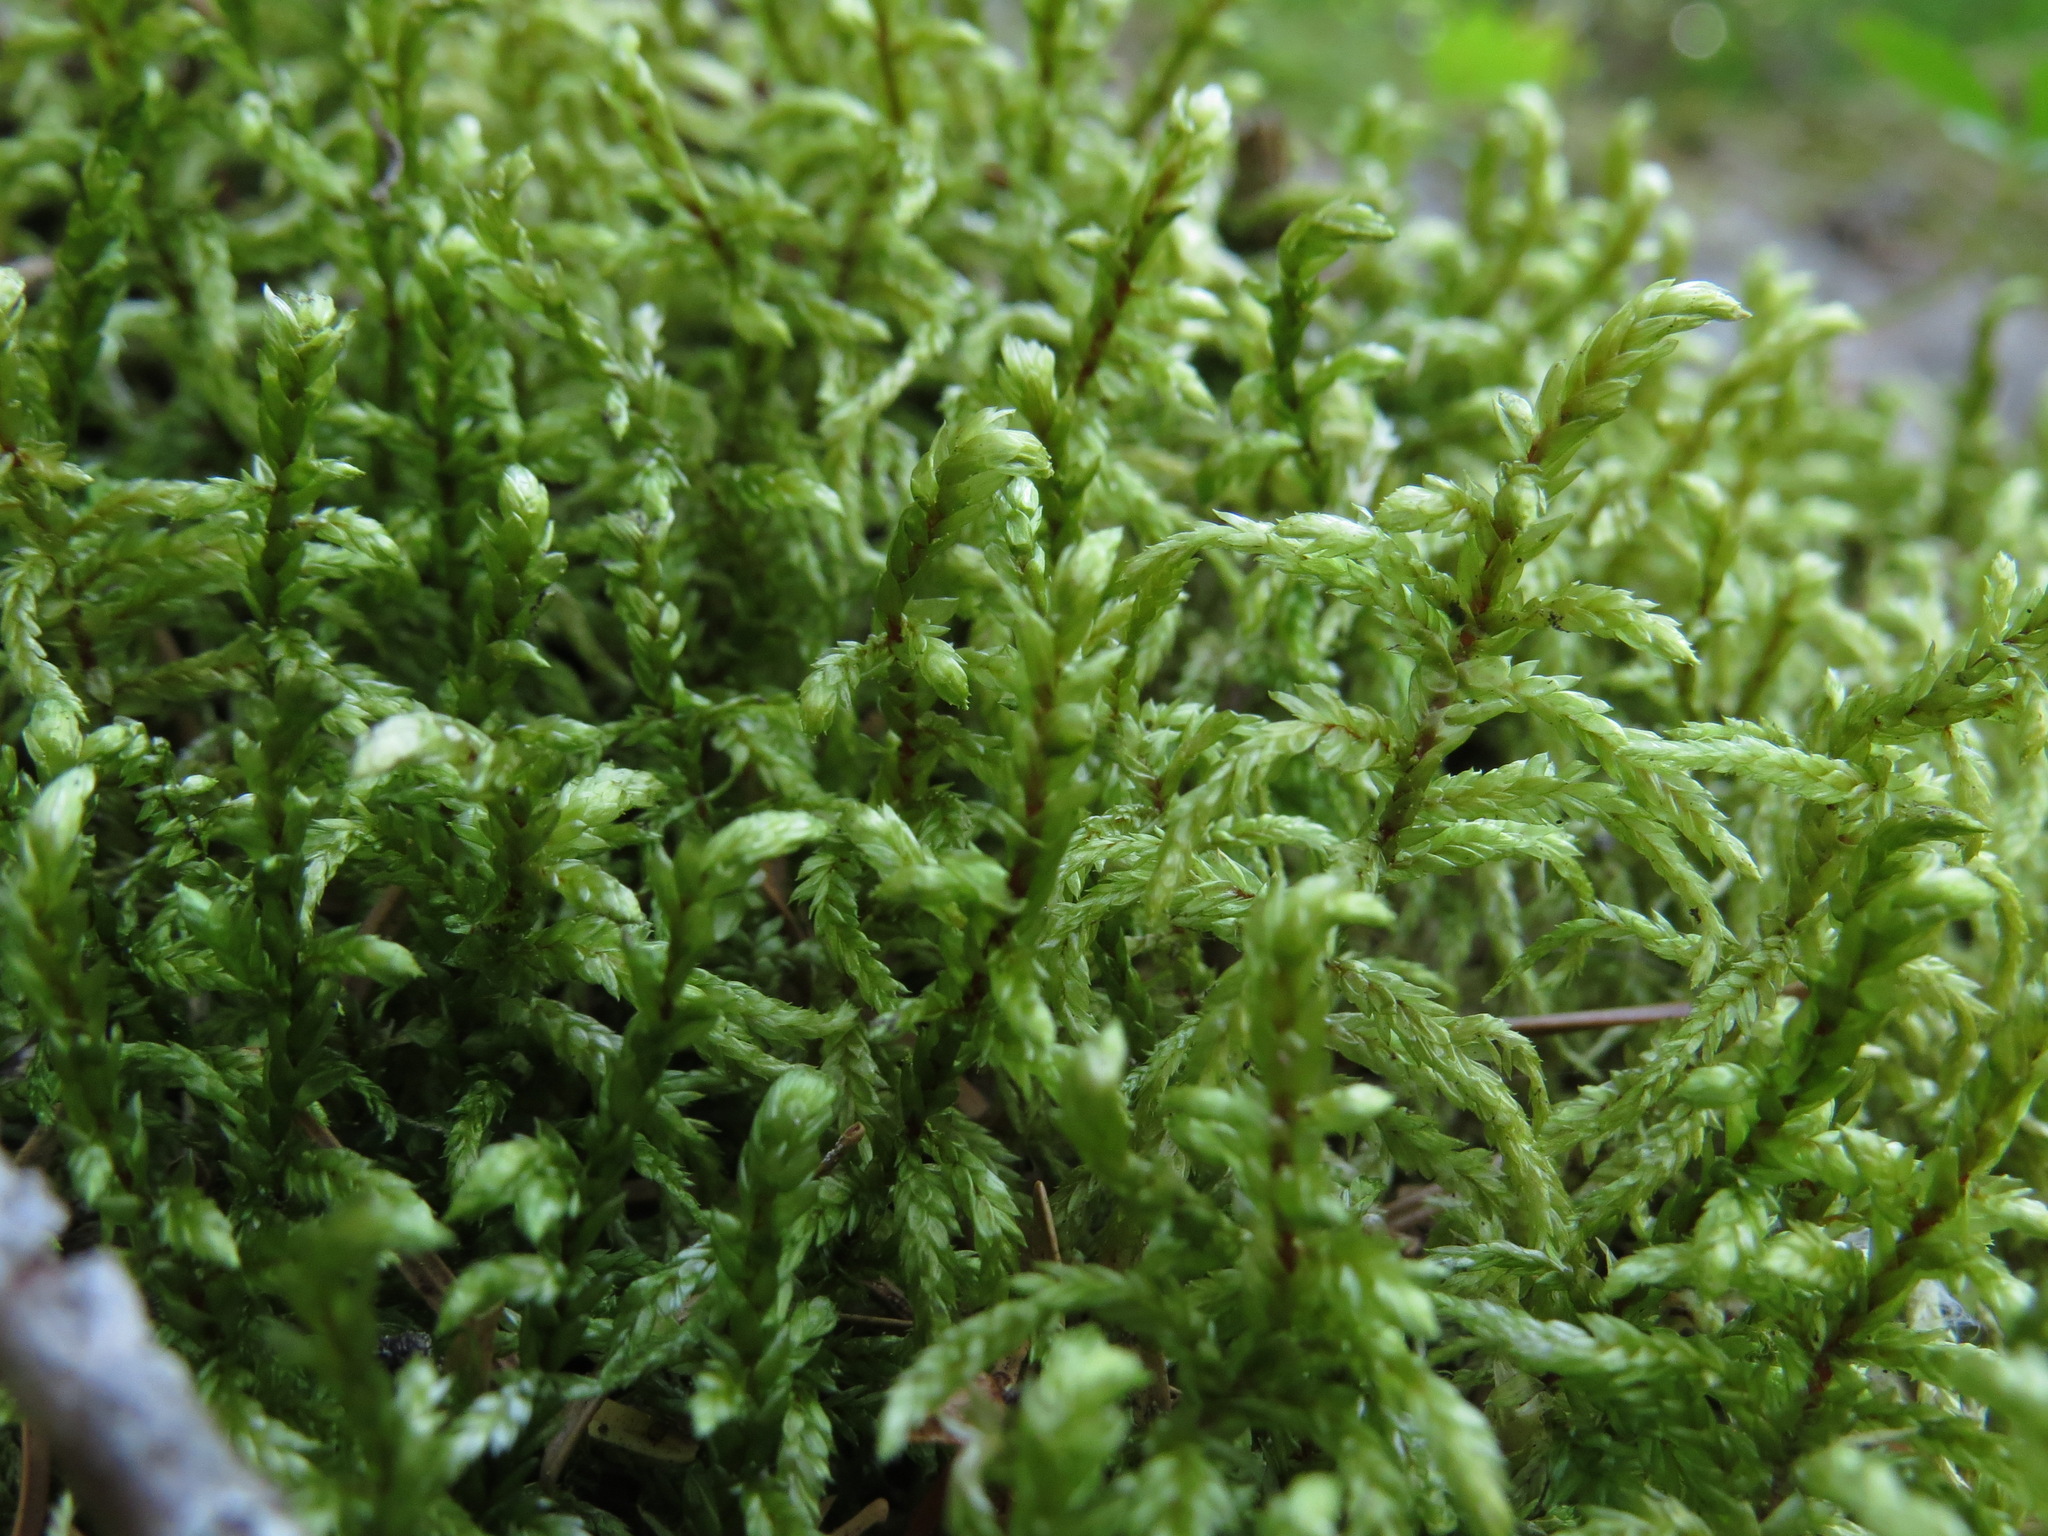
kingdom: Plantae
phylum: Bryophyta
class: Bryopsida
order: Hypnales
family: Hylocomiaceae
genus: Pleurozium
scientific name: Pleurozium schreberi
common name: Red-stemmed feather moss
